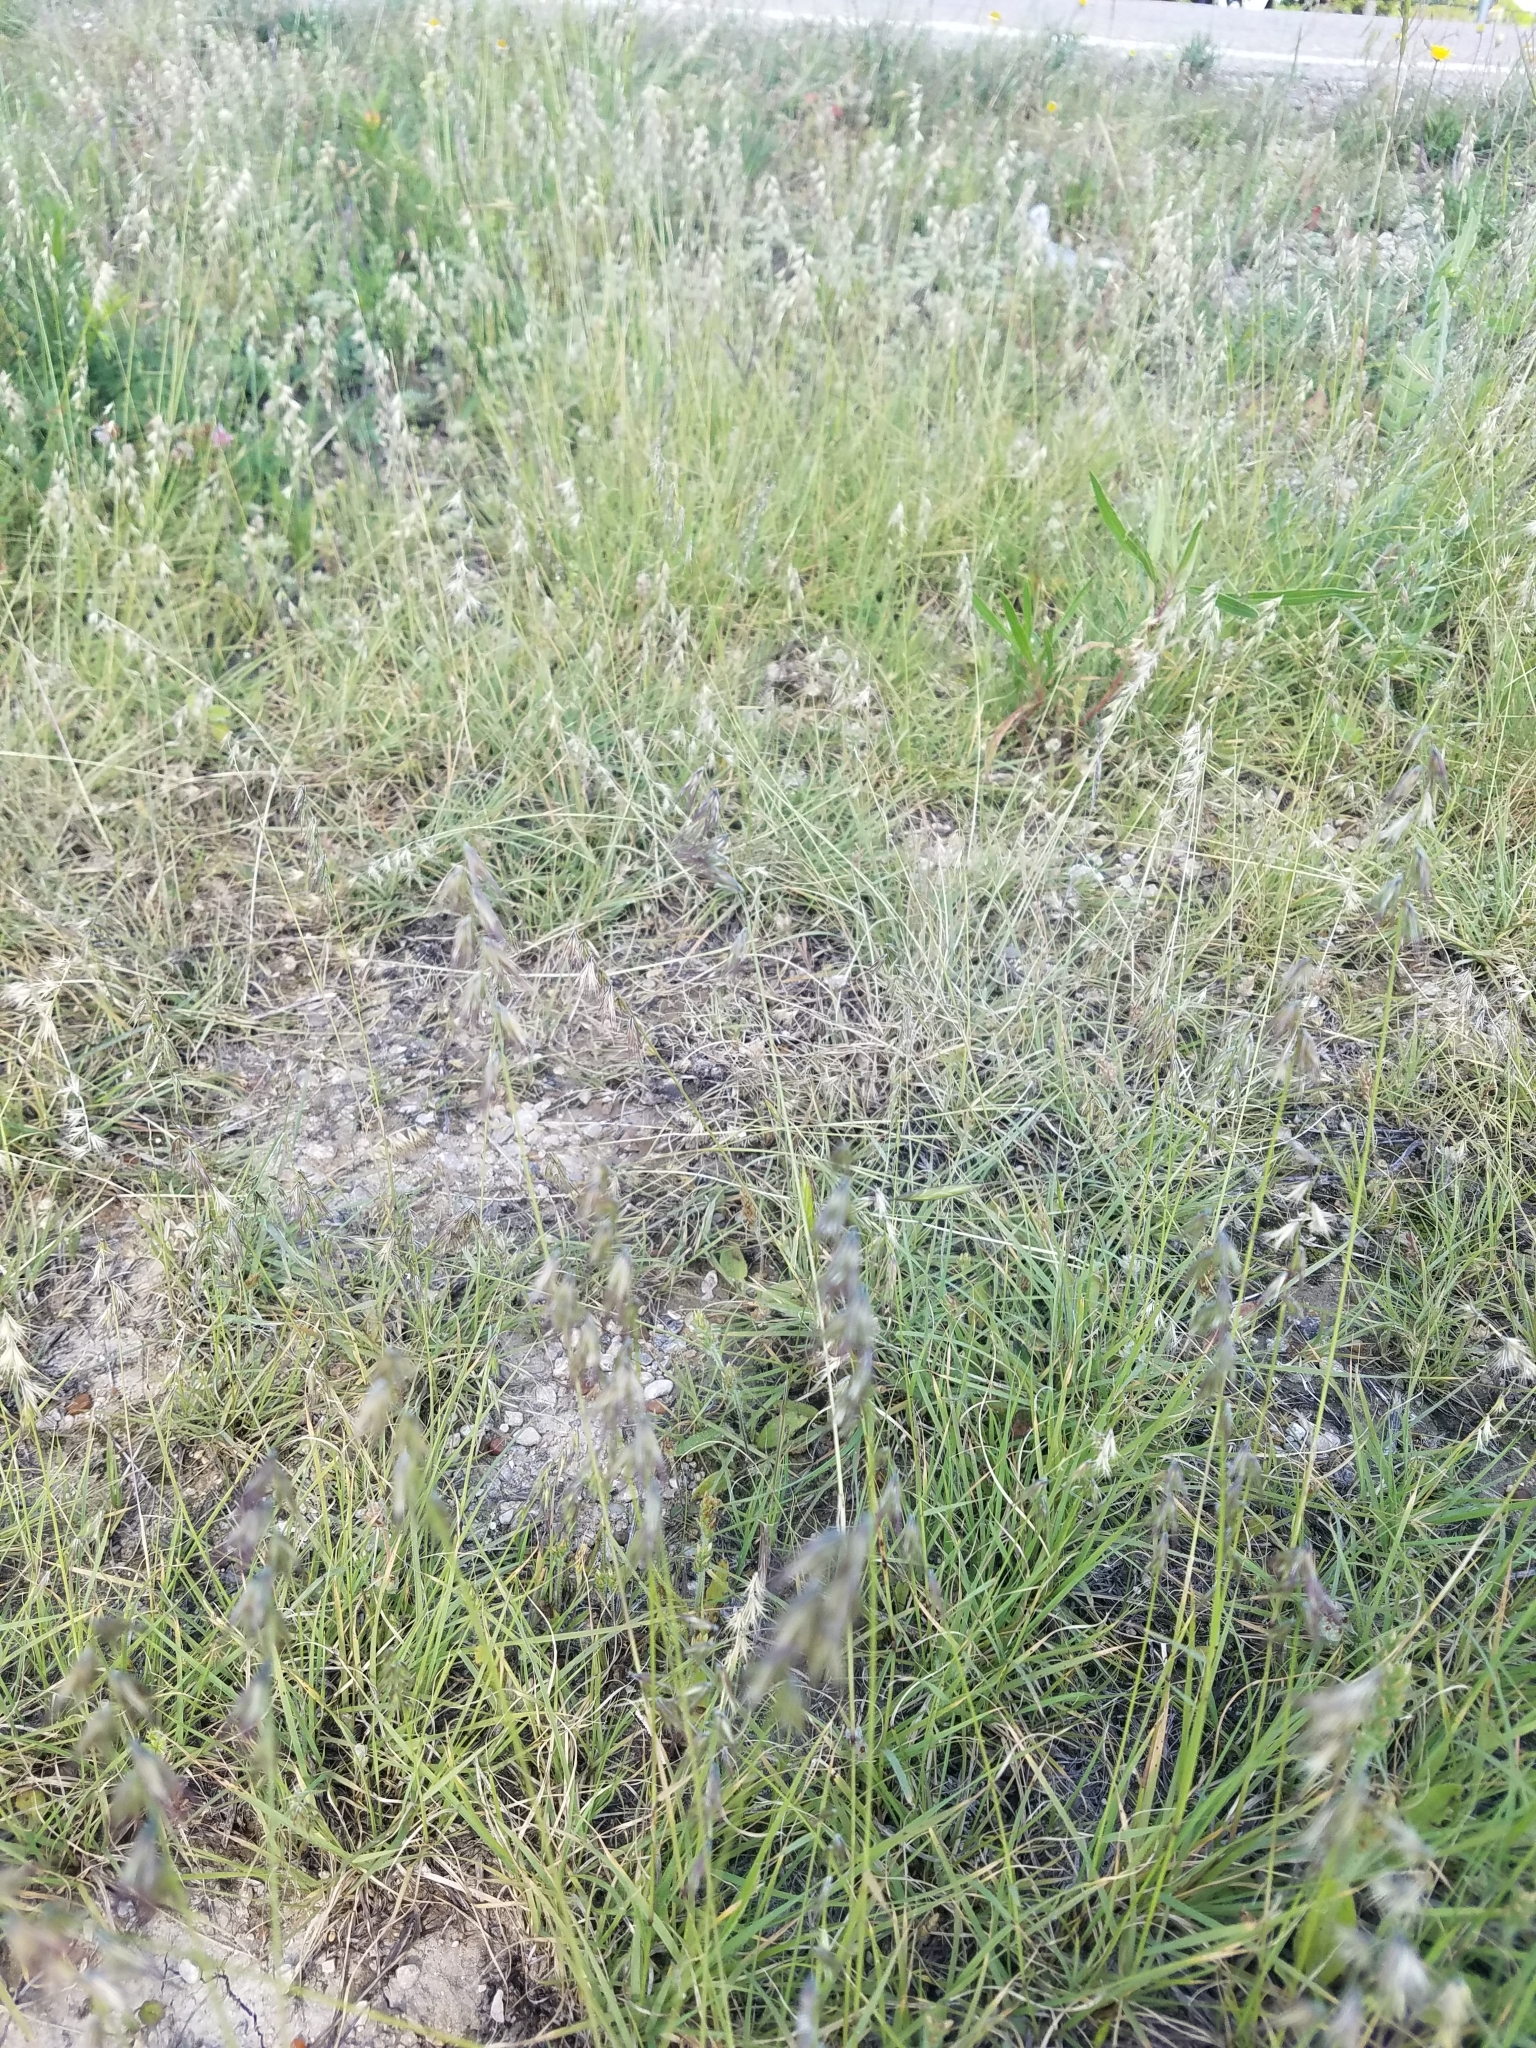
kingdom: Plantae
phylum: Tracheophyta
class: Liliopsida
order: Poales
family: Poaceae
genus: Bouteloua
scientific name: Bouteloua rigidiseta
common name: Texas grama
